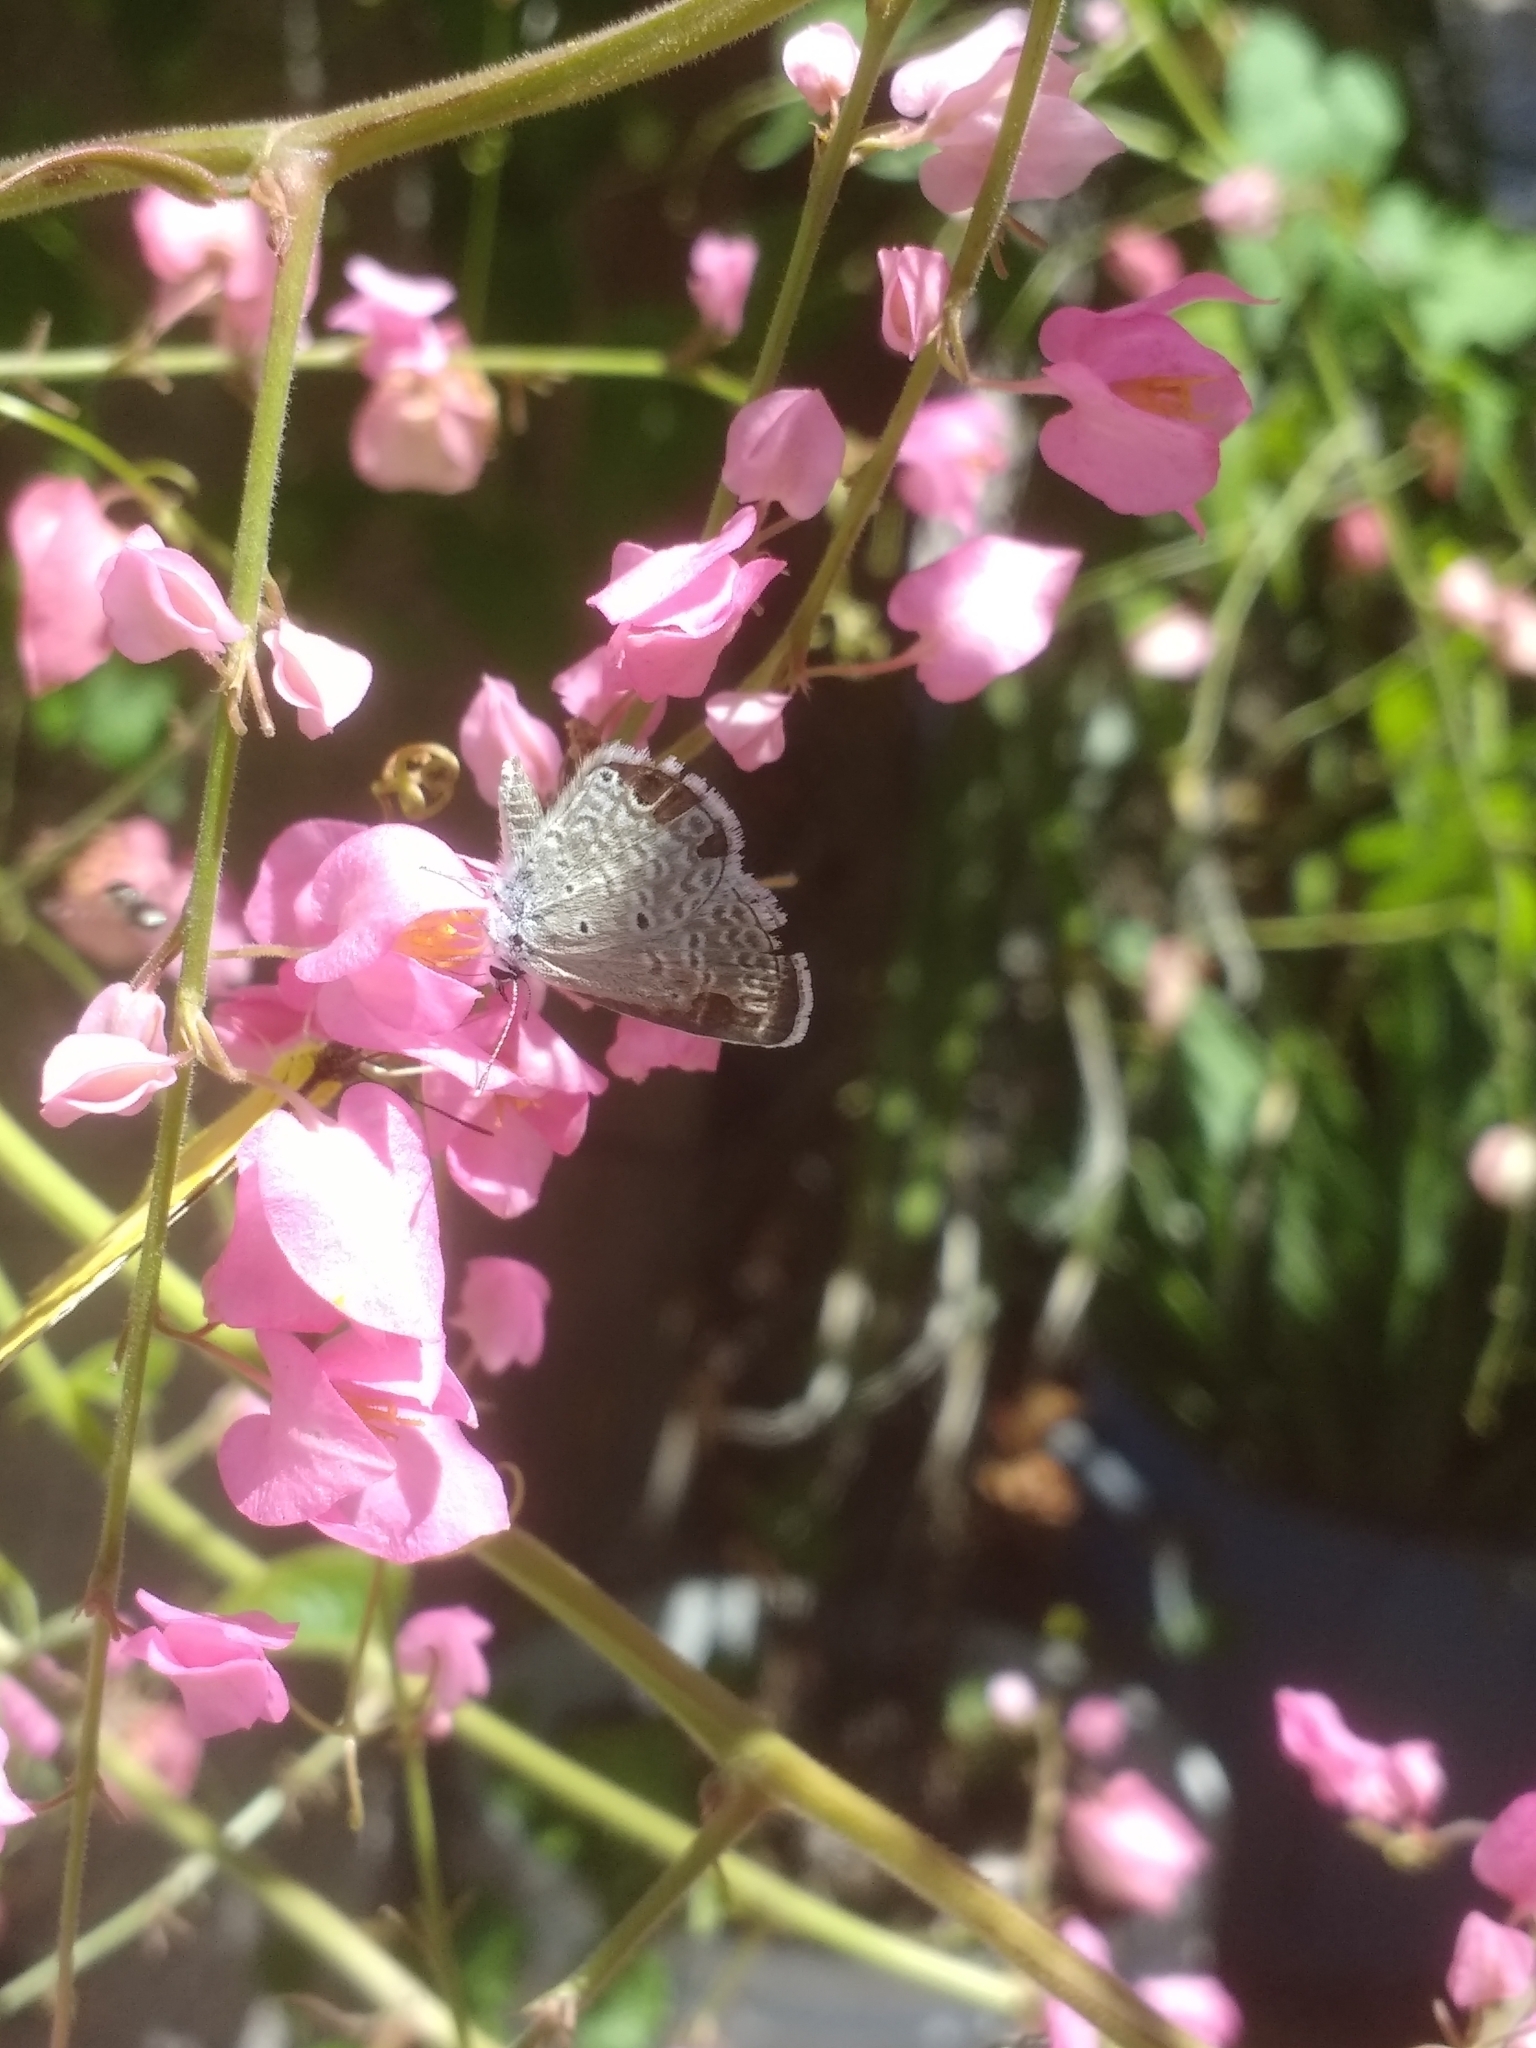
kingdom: Animalia
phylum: Arthropoda
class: Insecta
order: Lepidoptera
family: Lycaenidae
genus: Echinargus
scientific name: Echinargus isola
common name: Reakirt's blue
